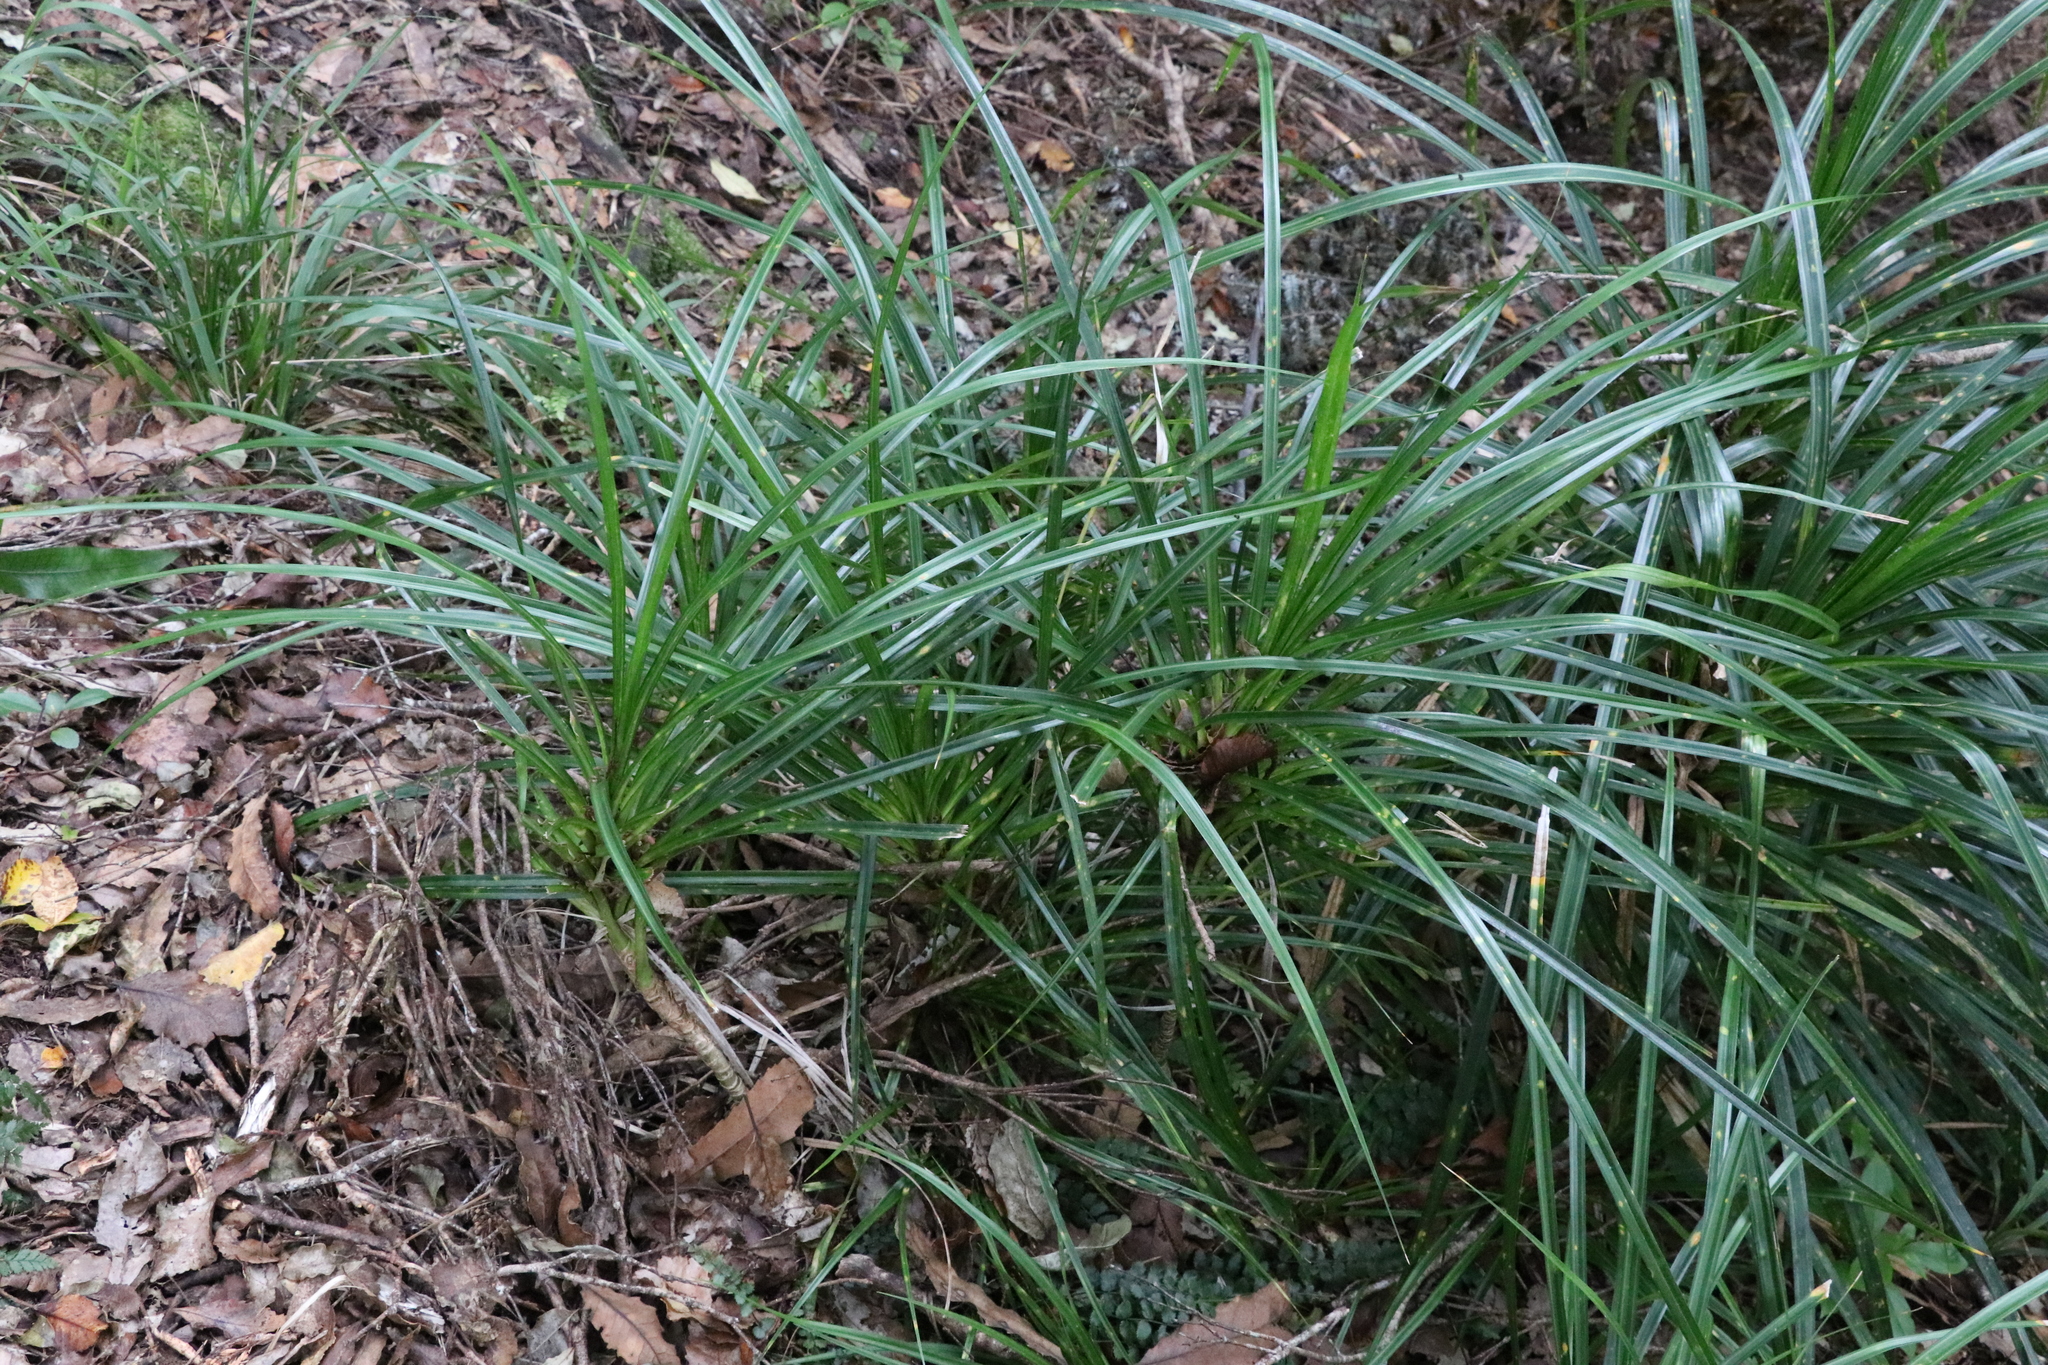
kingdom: Plantae
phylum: Tracheophyta
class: Liliopsida
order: Pandanales
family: Pandanaceae
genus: Freycinetia
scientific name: Freycinetia banksii
